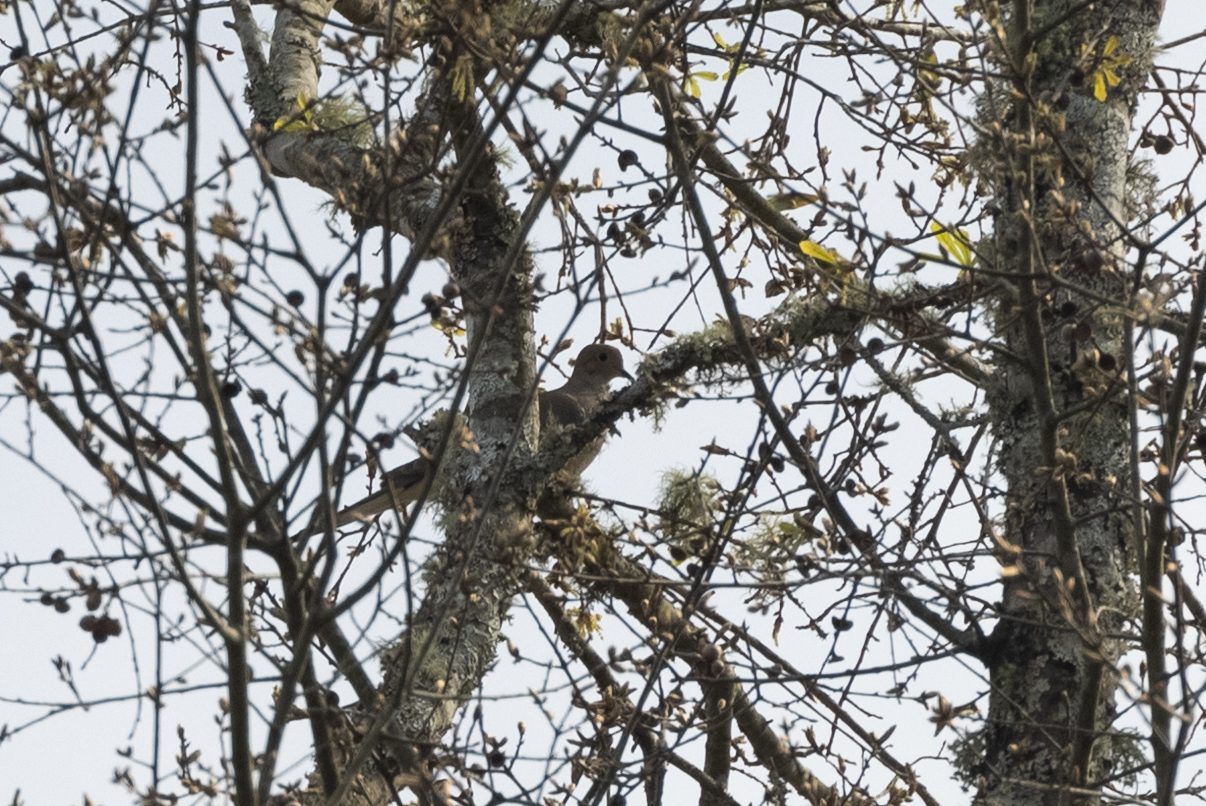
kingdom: Animalia
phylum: Chordata
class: Aves
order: Columbiformes
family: Columbidae
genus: Zenaida
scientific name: Zenaida macroura
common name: Mourning dove
